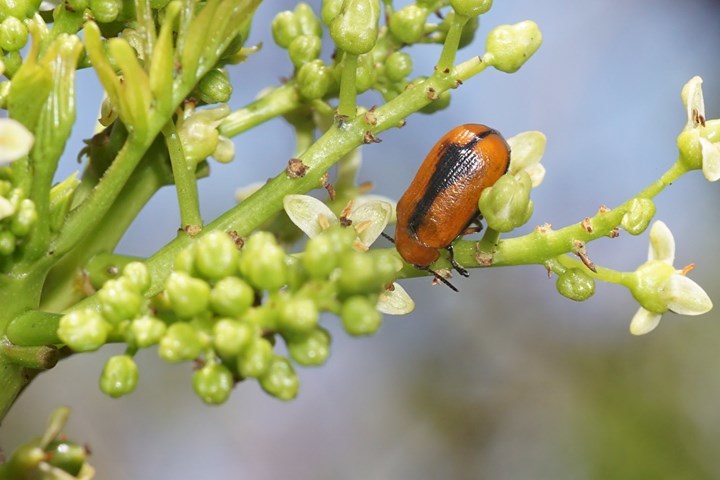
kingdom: Animalia
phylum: Arthropoda
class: Insecta
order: Coleoptera
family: Chrysomelidae
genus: Anomoea
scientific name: Anomoea nitidicollis
